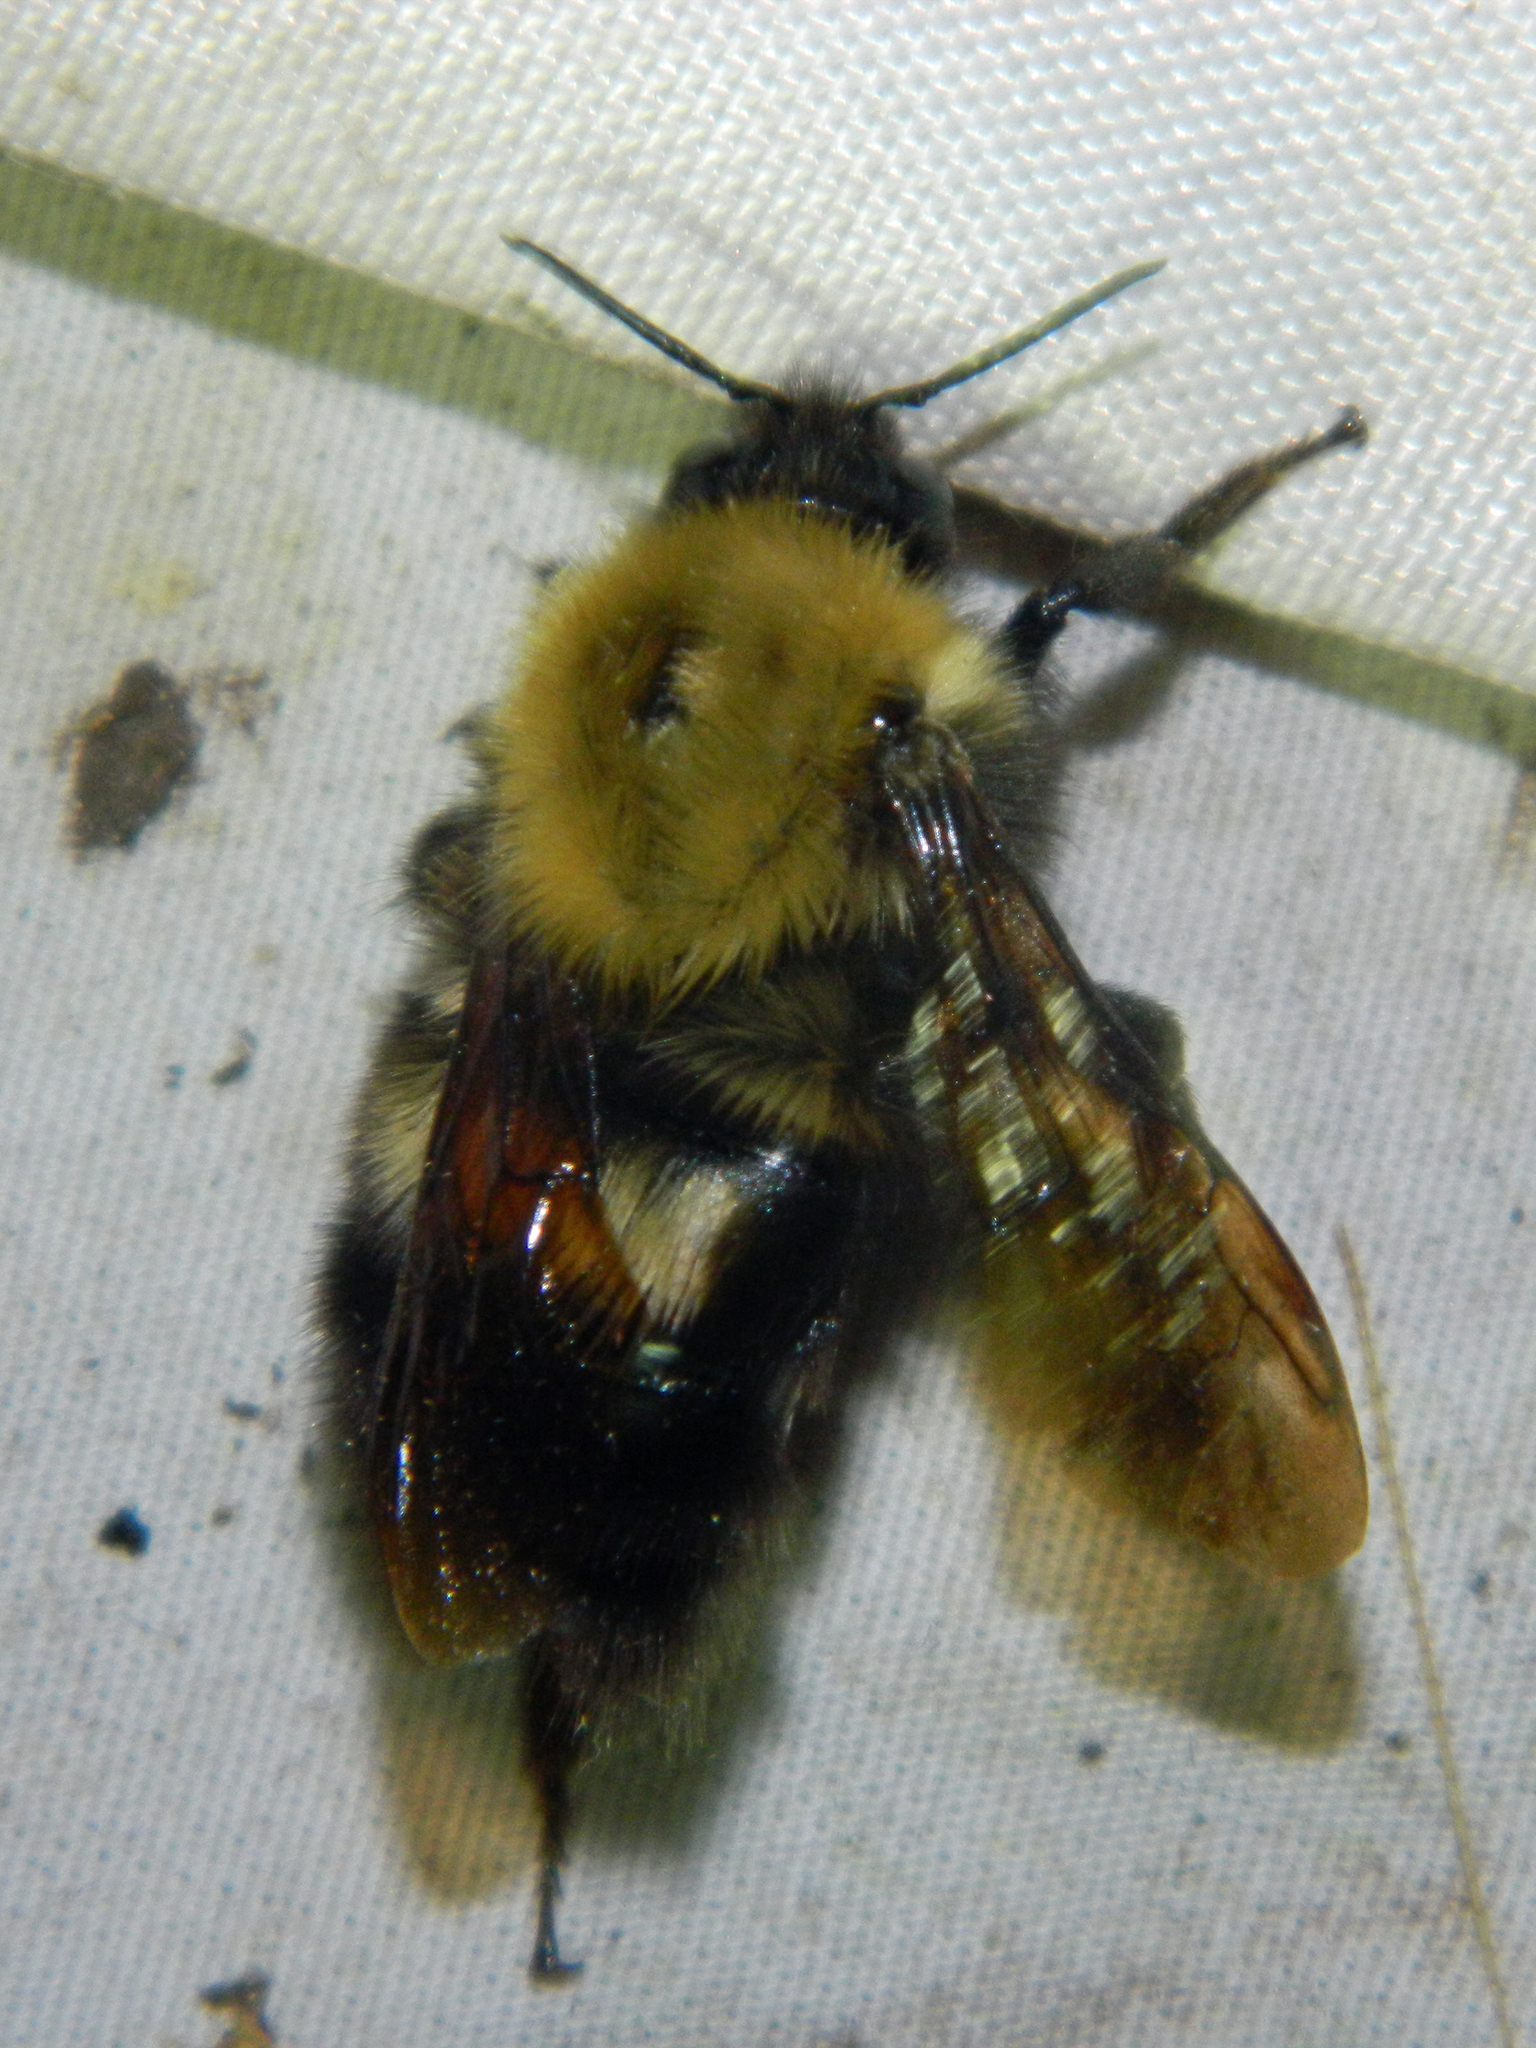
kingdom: Animalia
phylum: Arthropoda
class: Insecta
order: Hymenoptera
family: Apidae
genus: Bombus
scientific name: Bombus perplexus
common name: Confusing bumble bee
